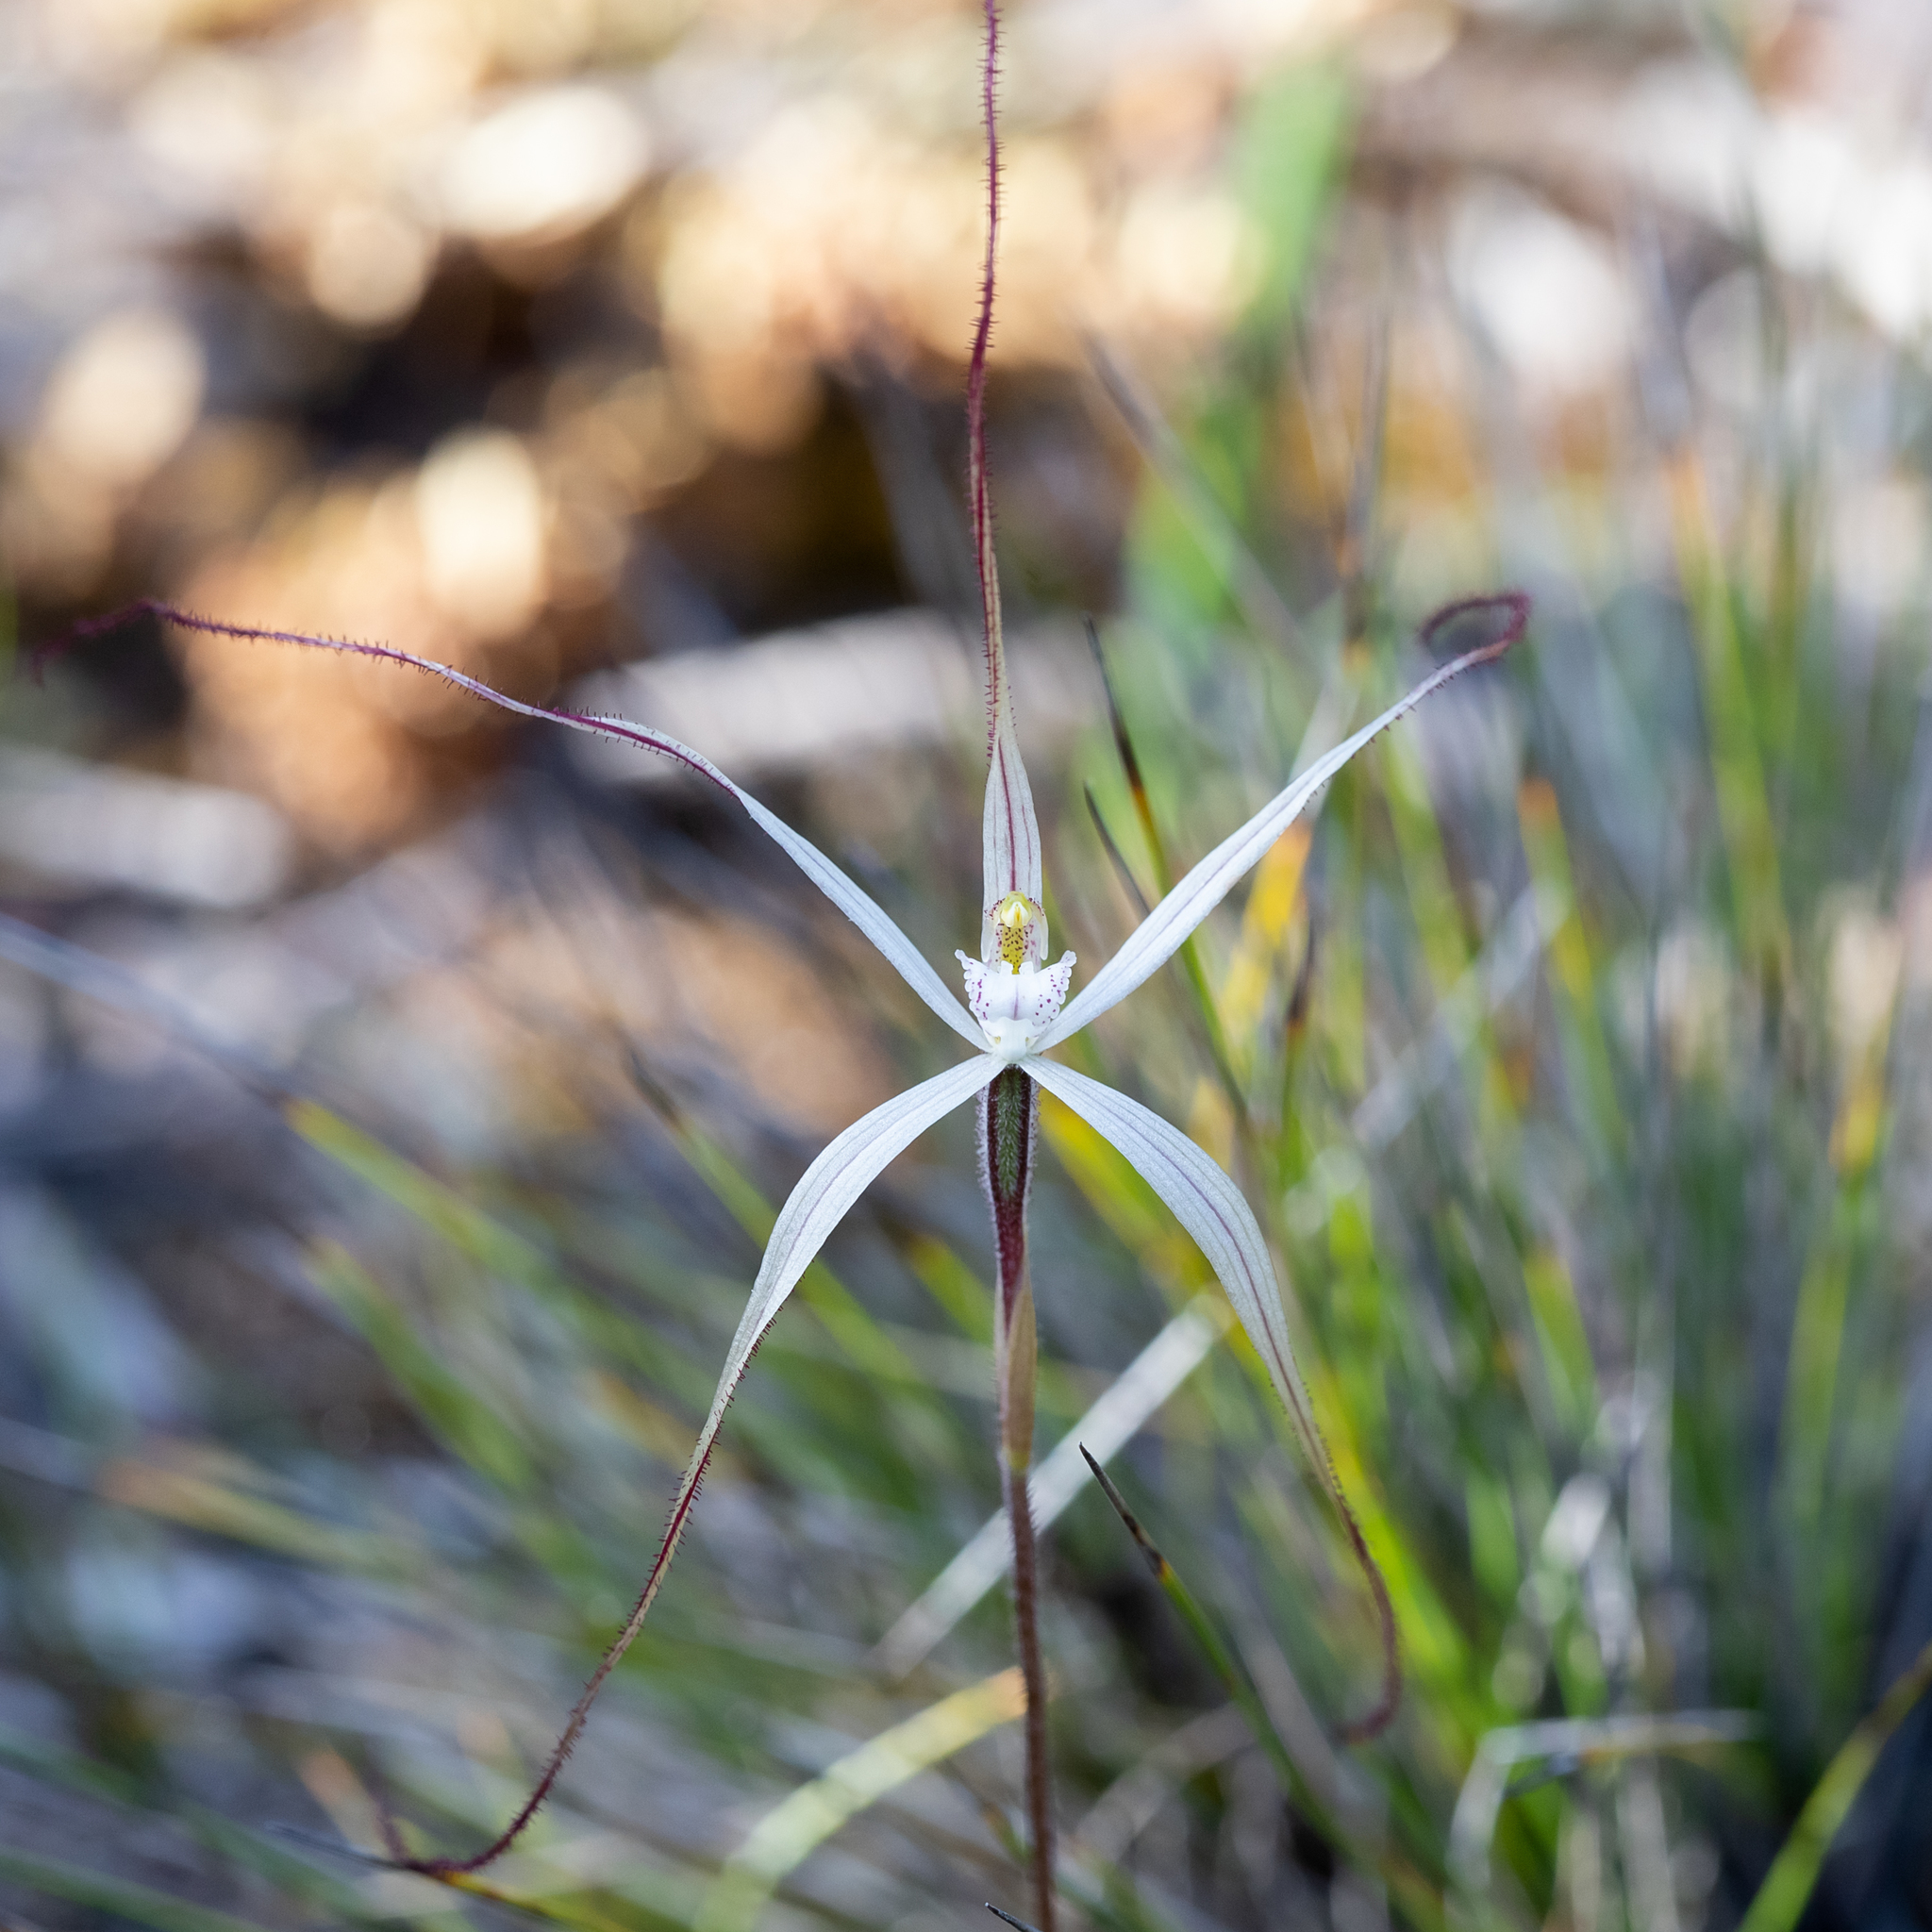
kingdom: Plantae
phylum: Tracheophyta
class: Liliopsida
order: Asparagales
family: Orchidaceae
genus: Caladenia
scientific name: Caladenia capillata
